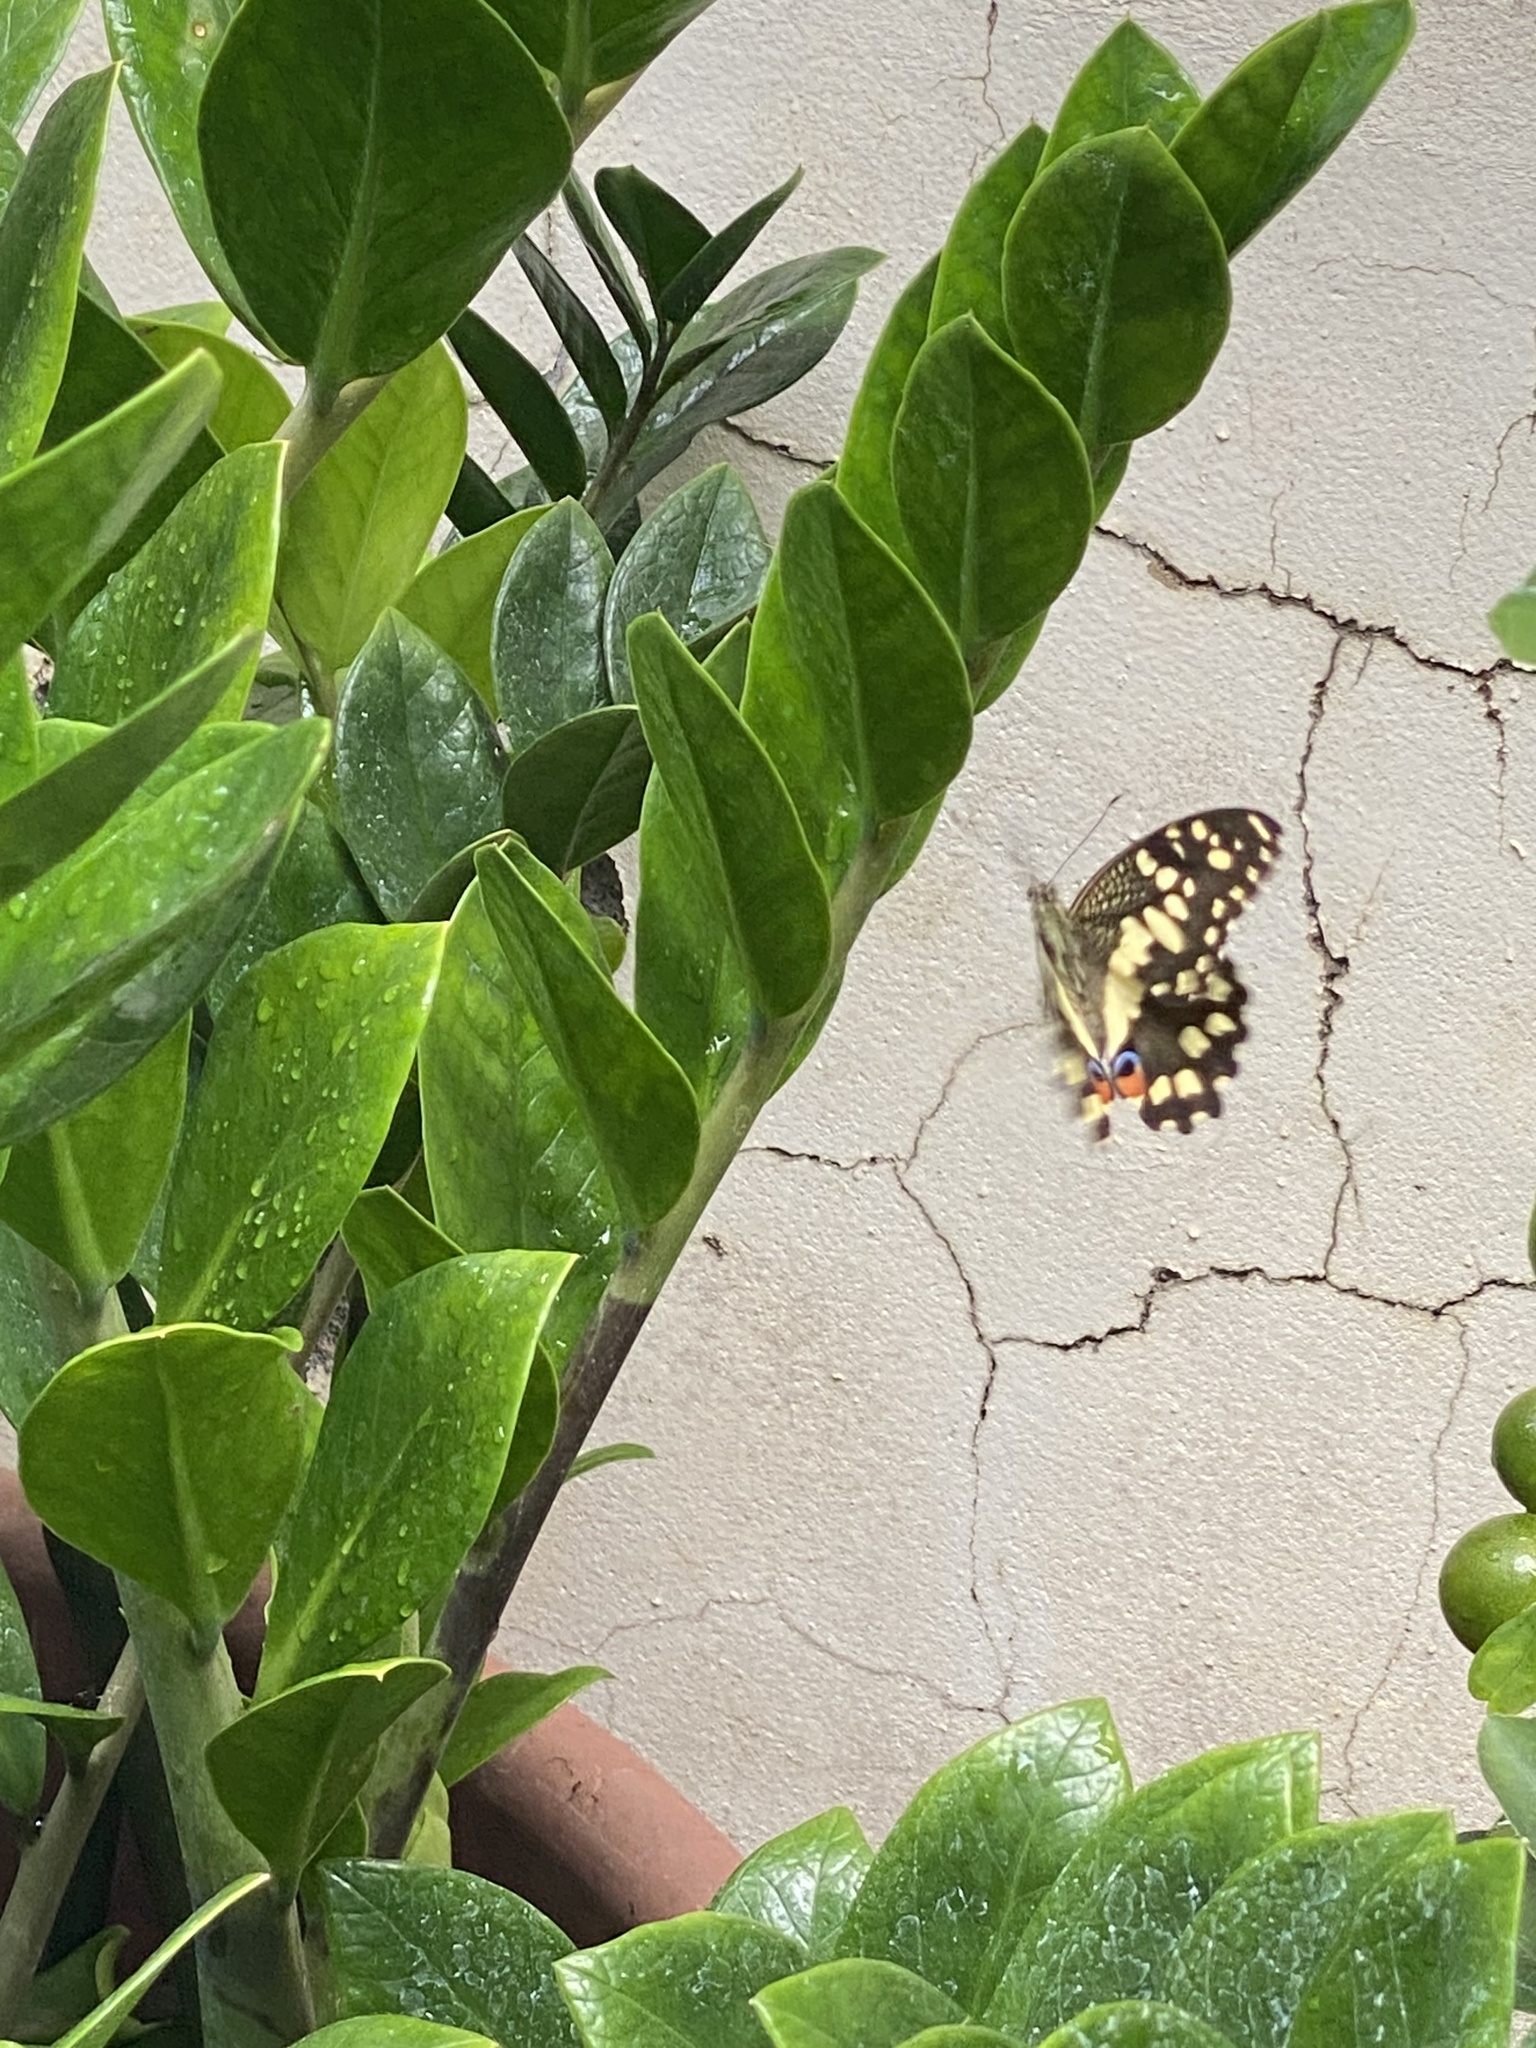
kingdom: Animalia
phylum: Arthropoda
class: Insecta
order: Lepidoptera
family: Papilionidae
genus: Papilio
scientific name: Papilio demoleus
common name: Lime butterfly
